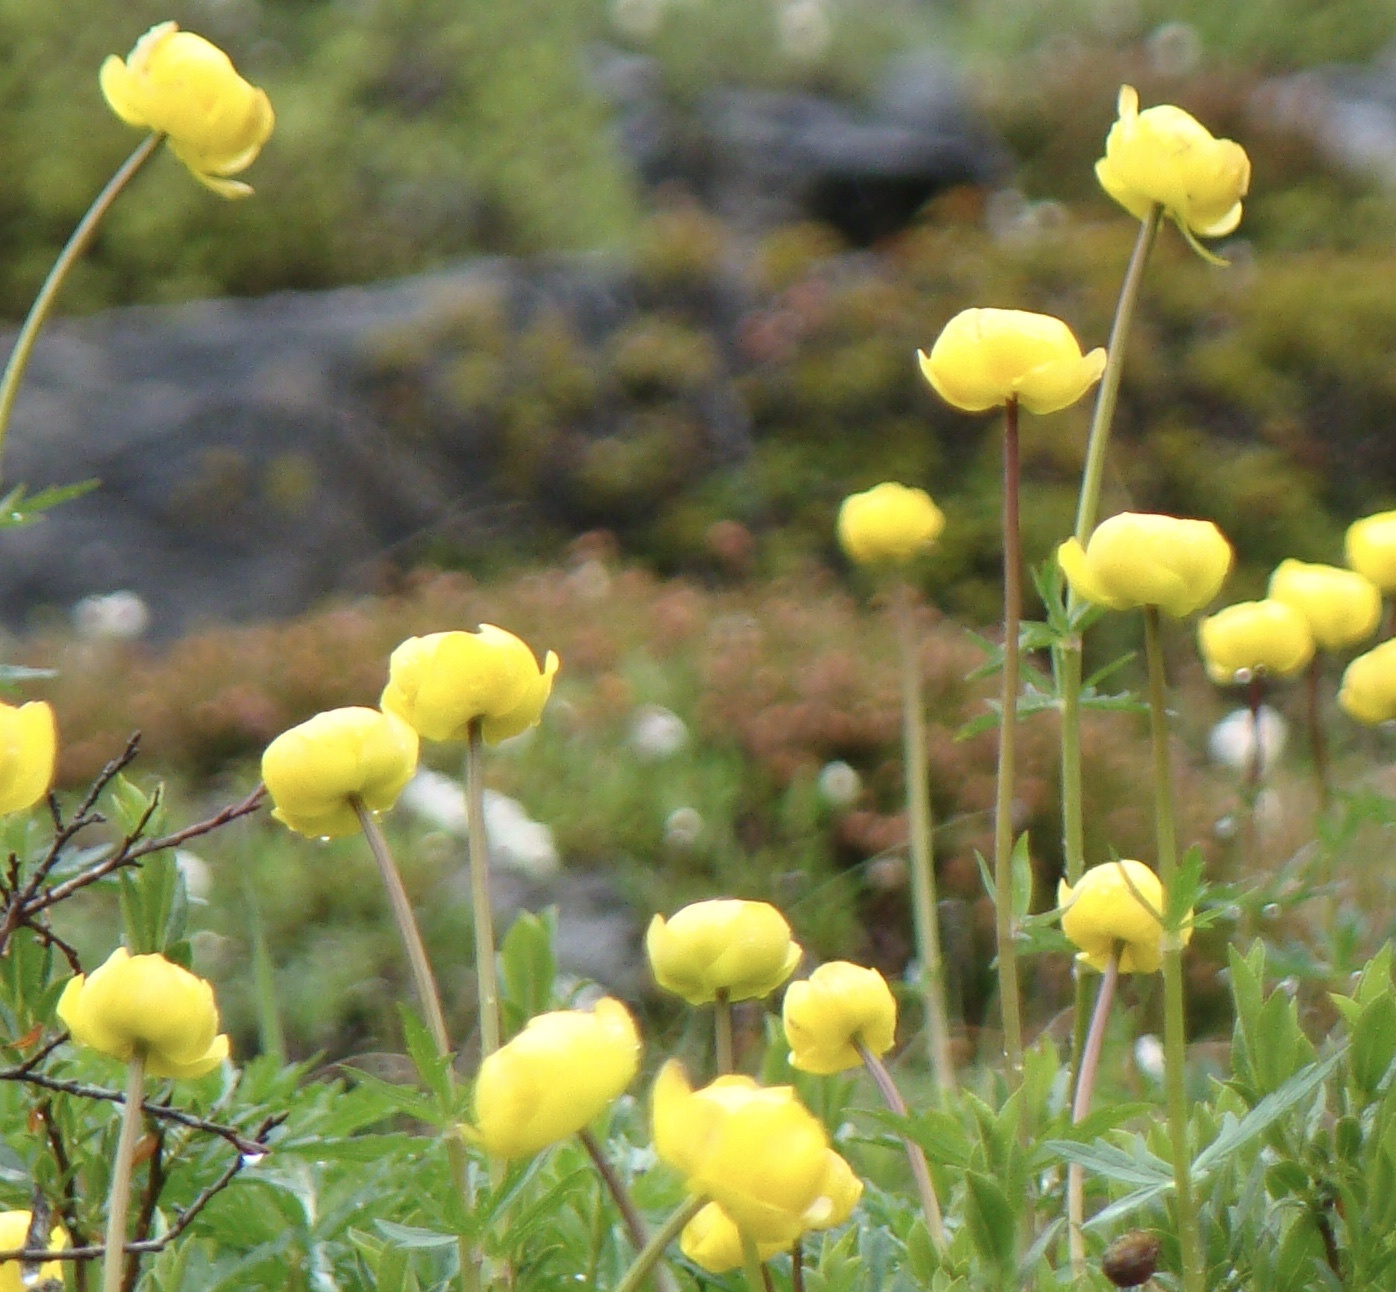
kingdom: Plantae
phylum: Tracheophyta
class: Magnoliopsida
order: Ranunculales
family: Ranunculaceae
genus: Trollius
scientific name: Trollius europaeus
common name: European globeflower
